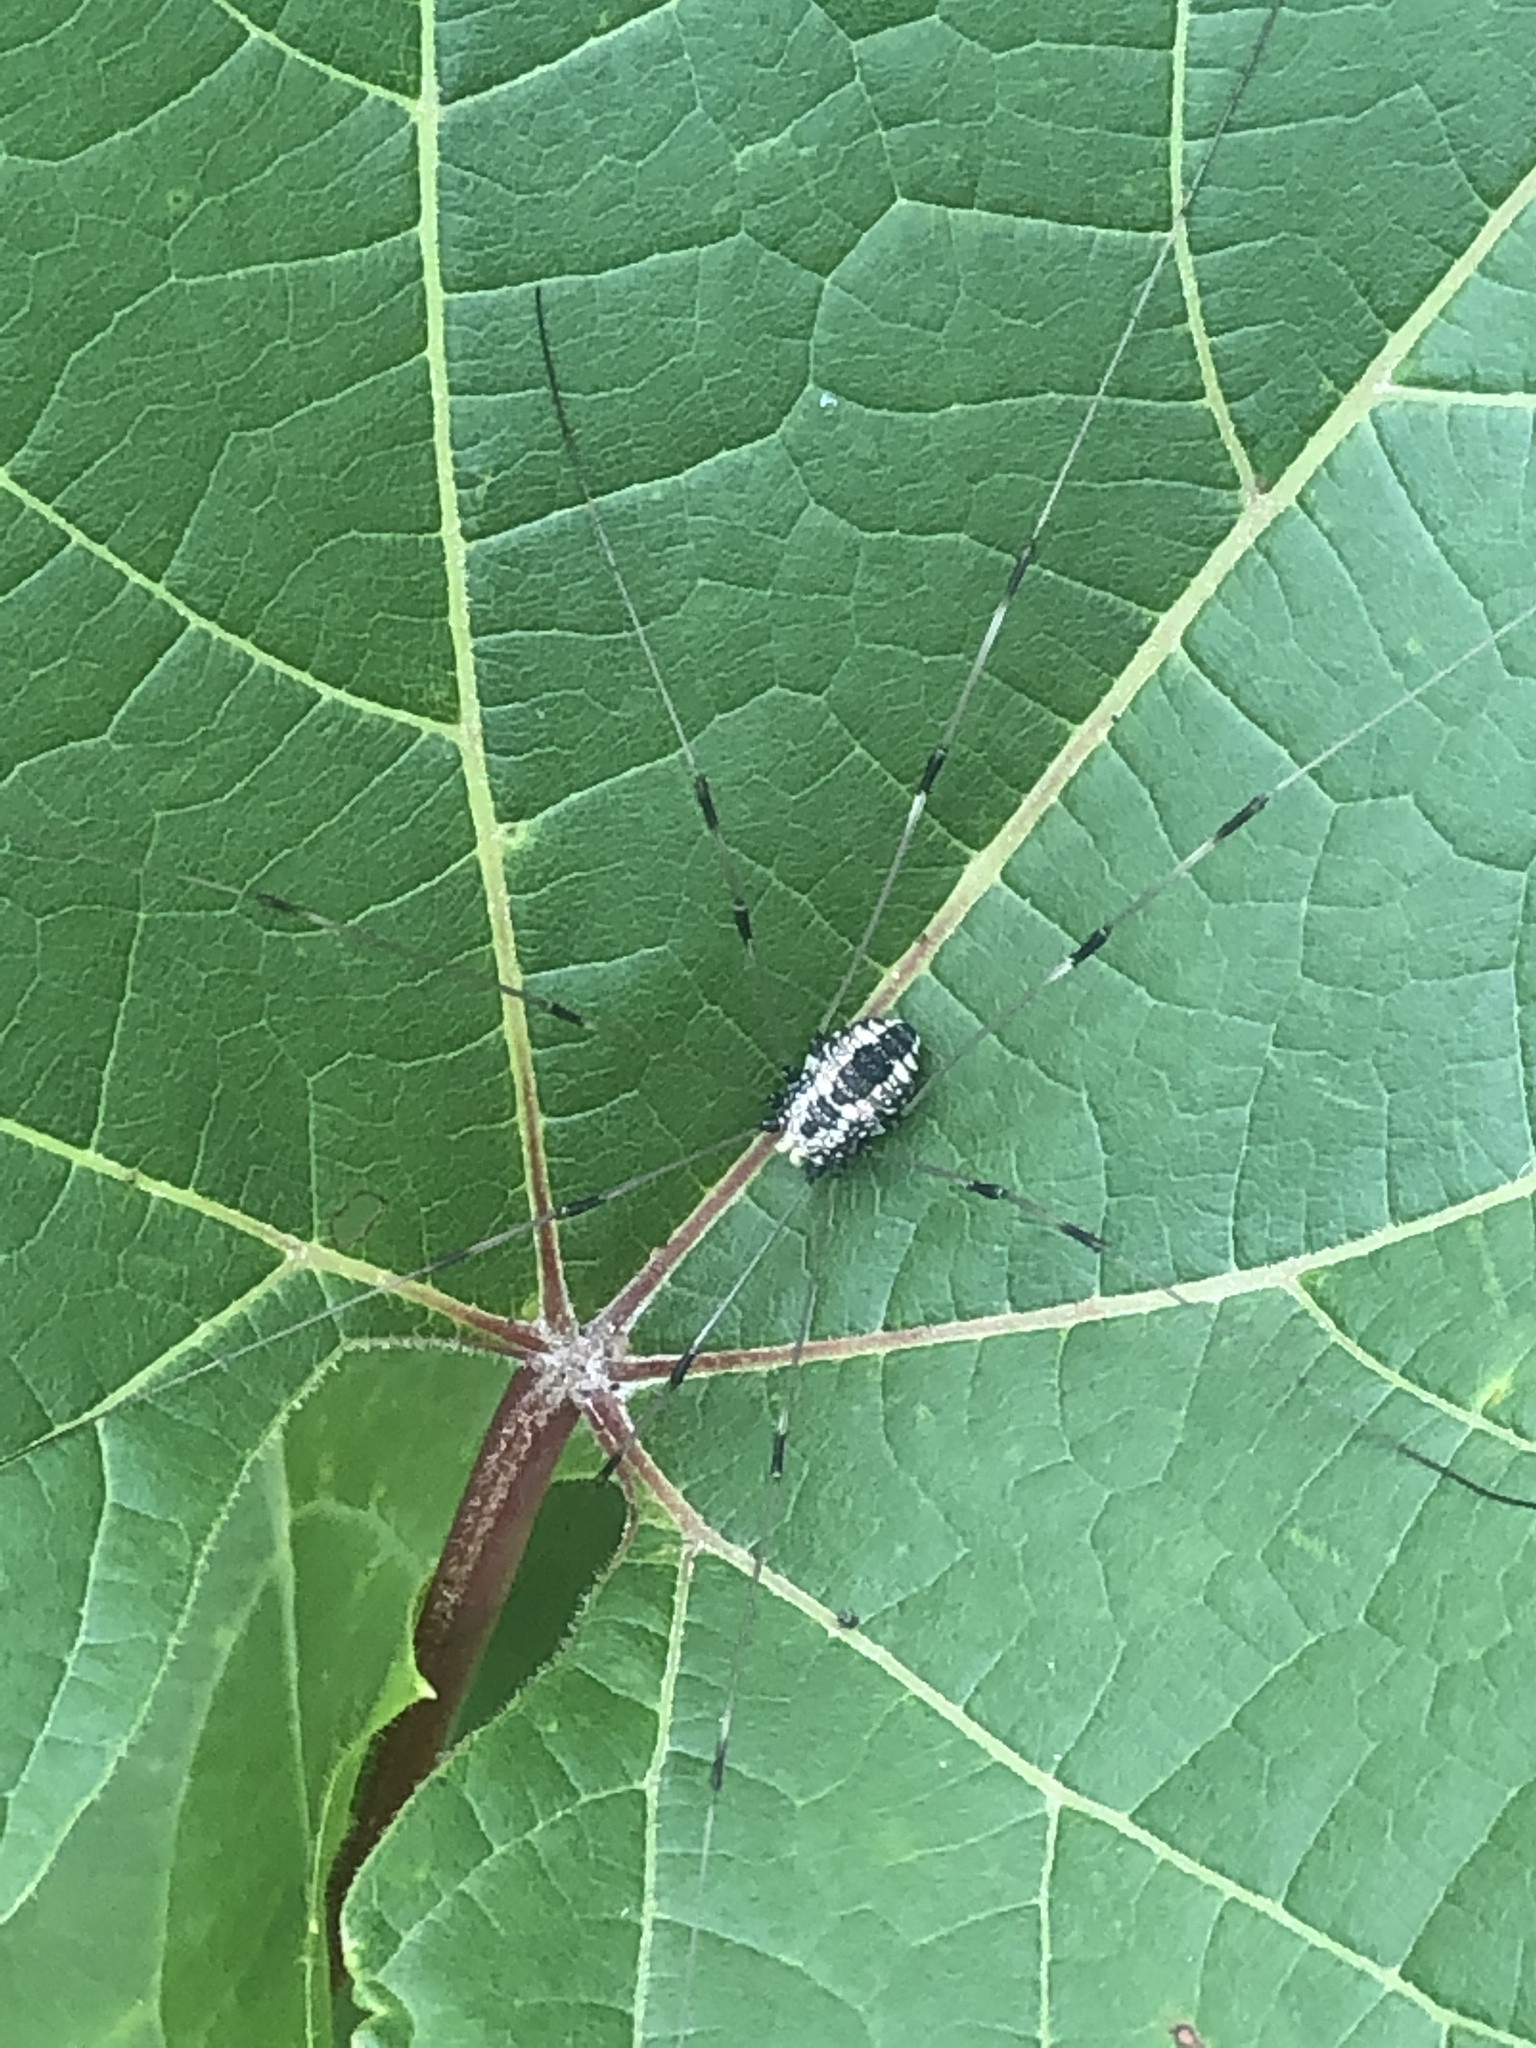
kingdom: Animalia
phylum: Arthropoda
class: Arachnida
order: Opiliones
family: Sclerosomatidae
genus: Leiobunum
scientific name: Leiobunum vittatum
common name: Eastern harvestman
